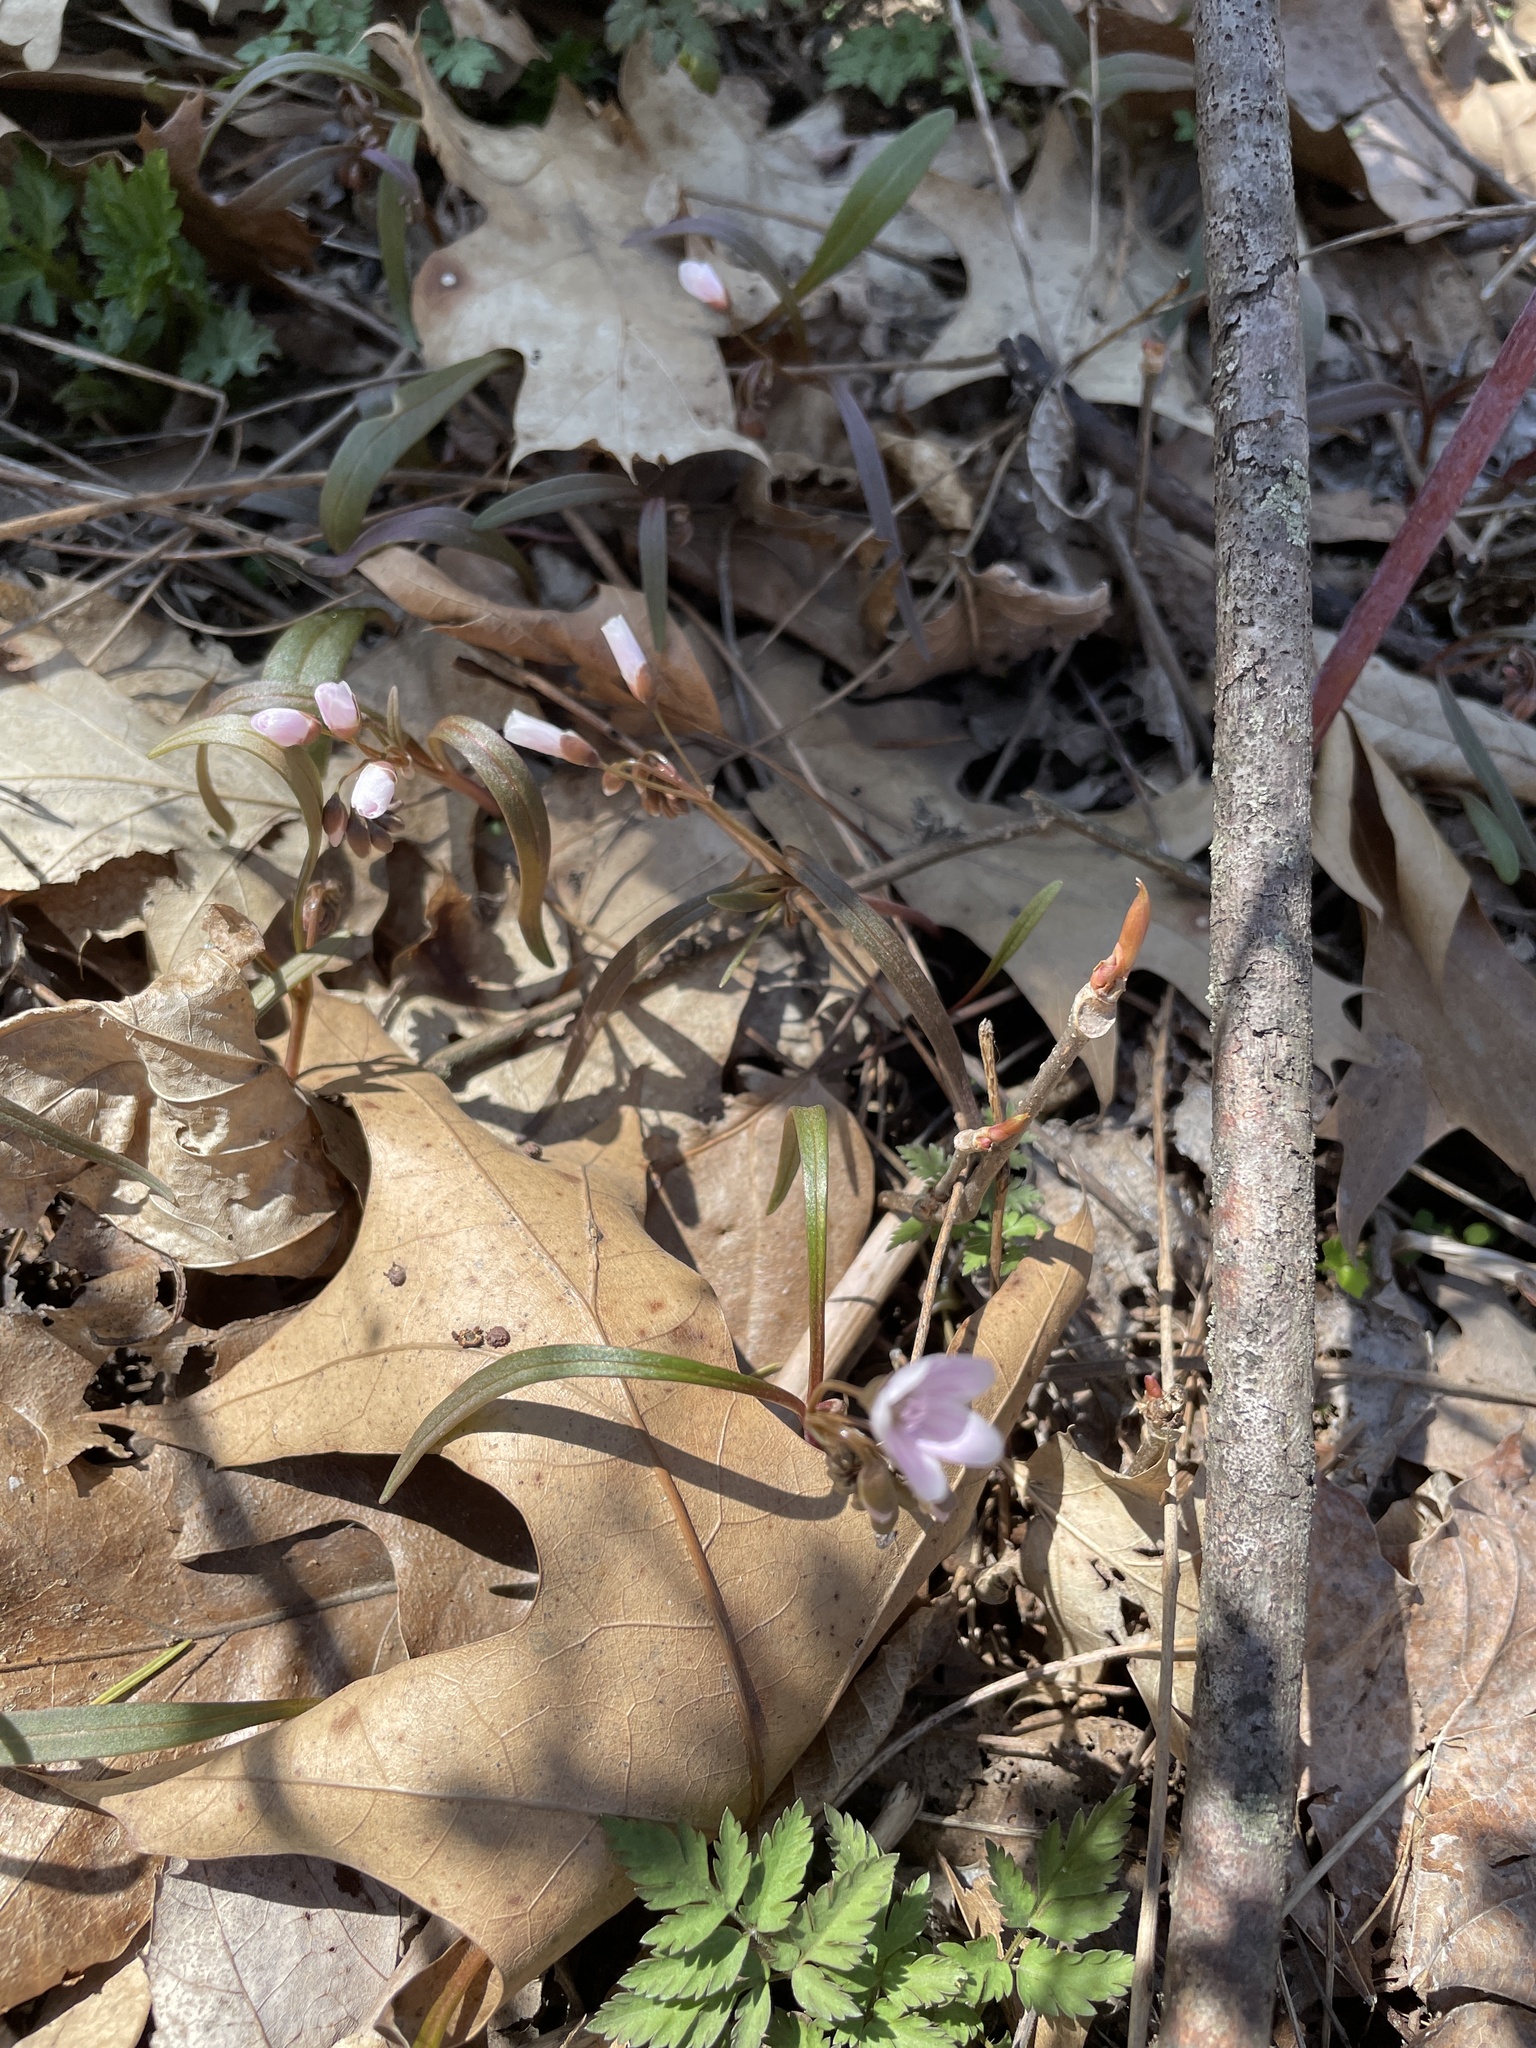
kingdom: Plantae
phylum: Tracheophyta
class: Magnoliopsida
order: Caryophyllales
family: Montiaceae
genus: Claytonia
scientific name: Claytonia virginica
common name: Virginia springbeauty
